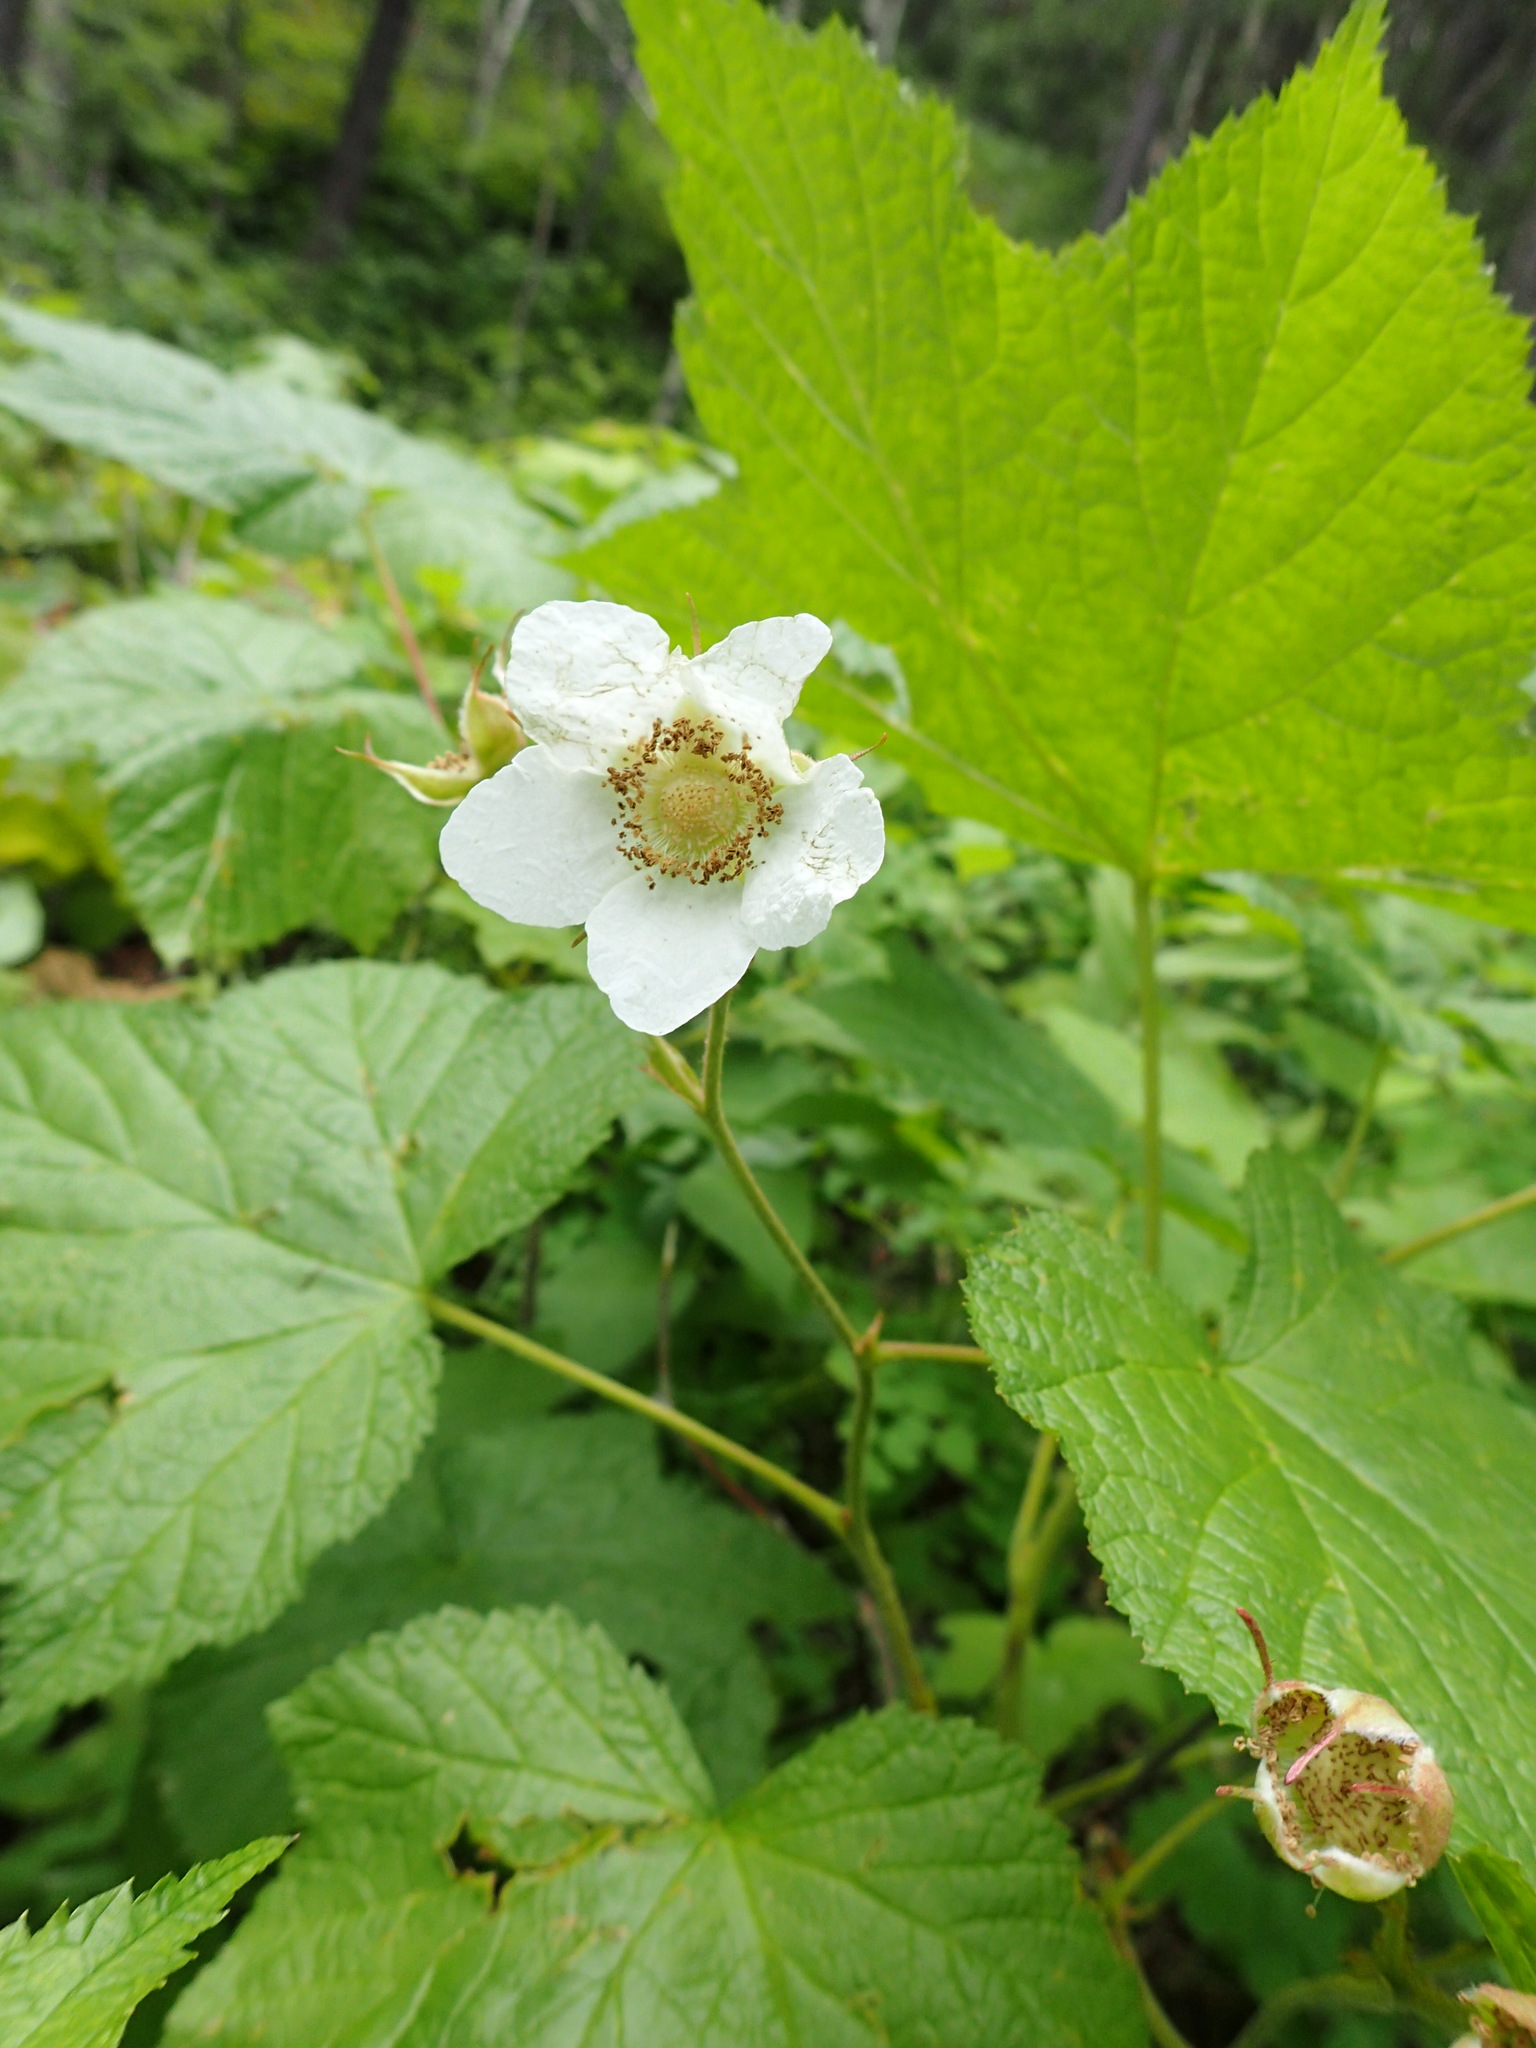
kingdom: Plantae
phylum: Tracheophyta
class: Magnoliopsida
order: Rosales
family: Rosaceae
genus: Rubus
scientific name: Rubus parviflorus
